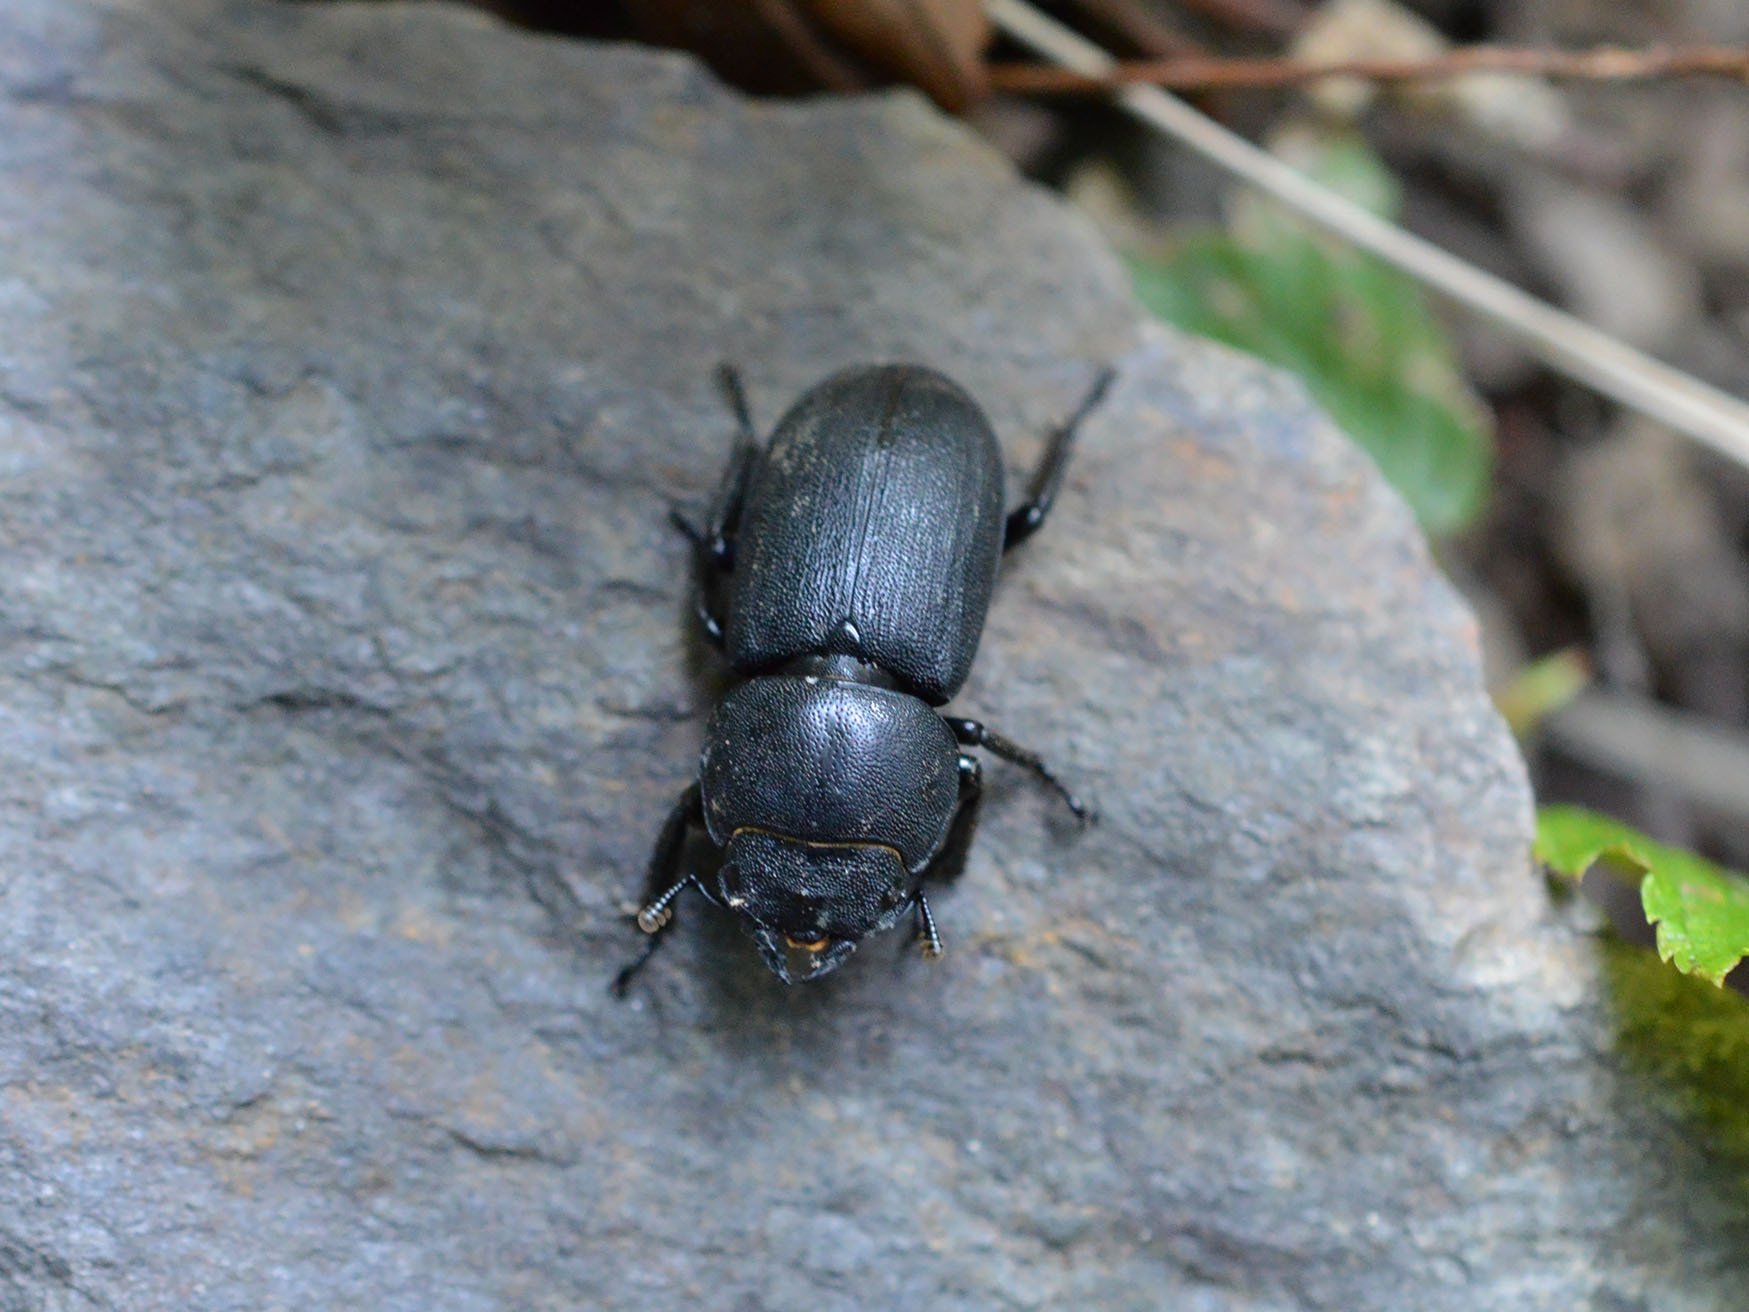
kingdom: Animalia
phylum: Arthropoda
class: Insecta
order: Coleoptera
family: Lucanidae
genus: Dorcus
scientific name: Dorcus parallelipipedus
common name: Lesser stag beetle
